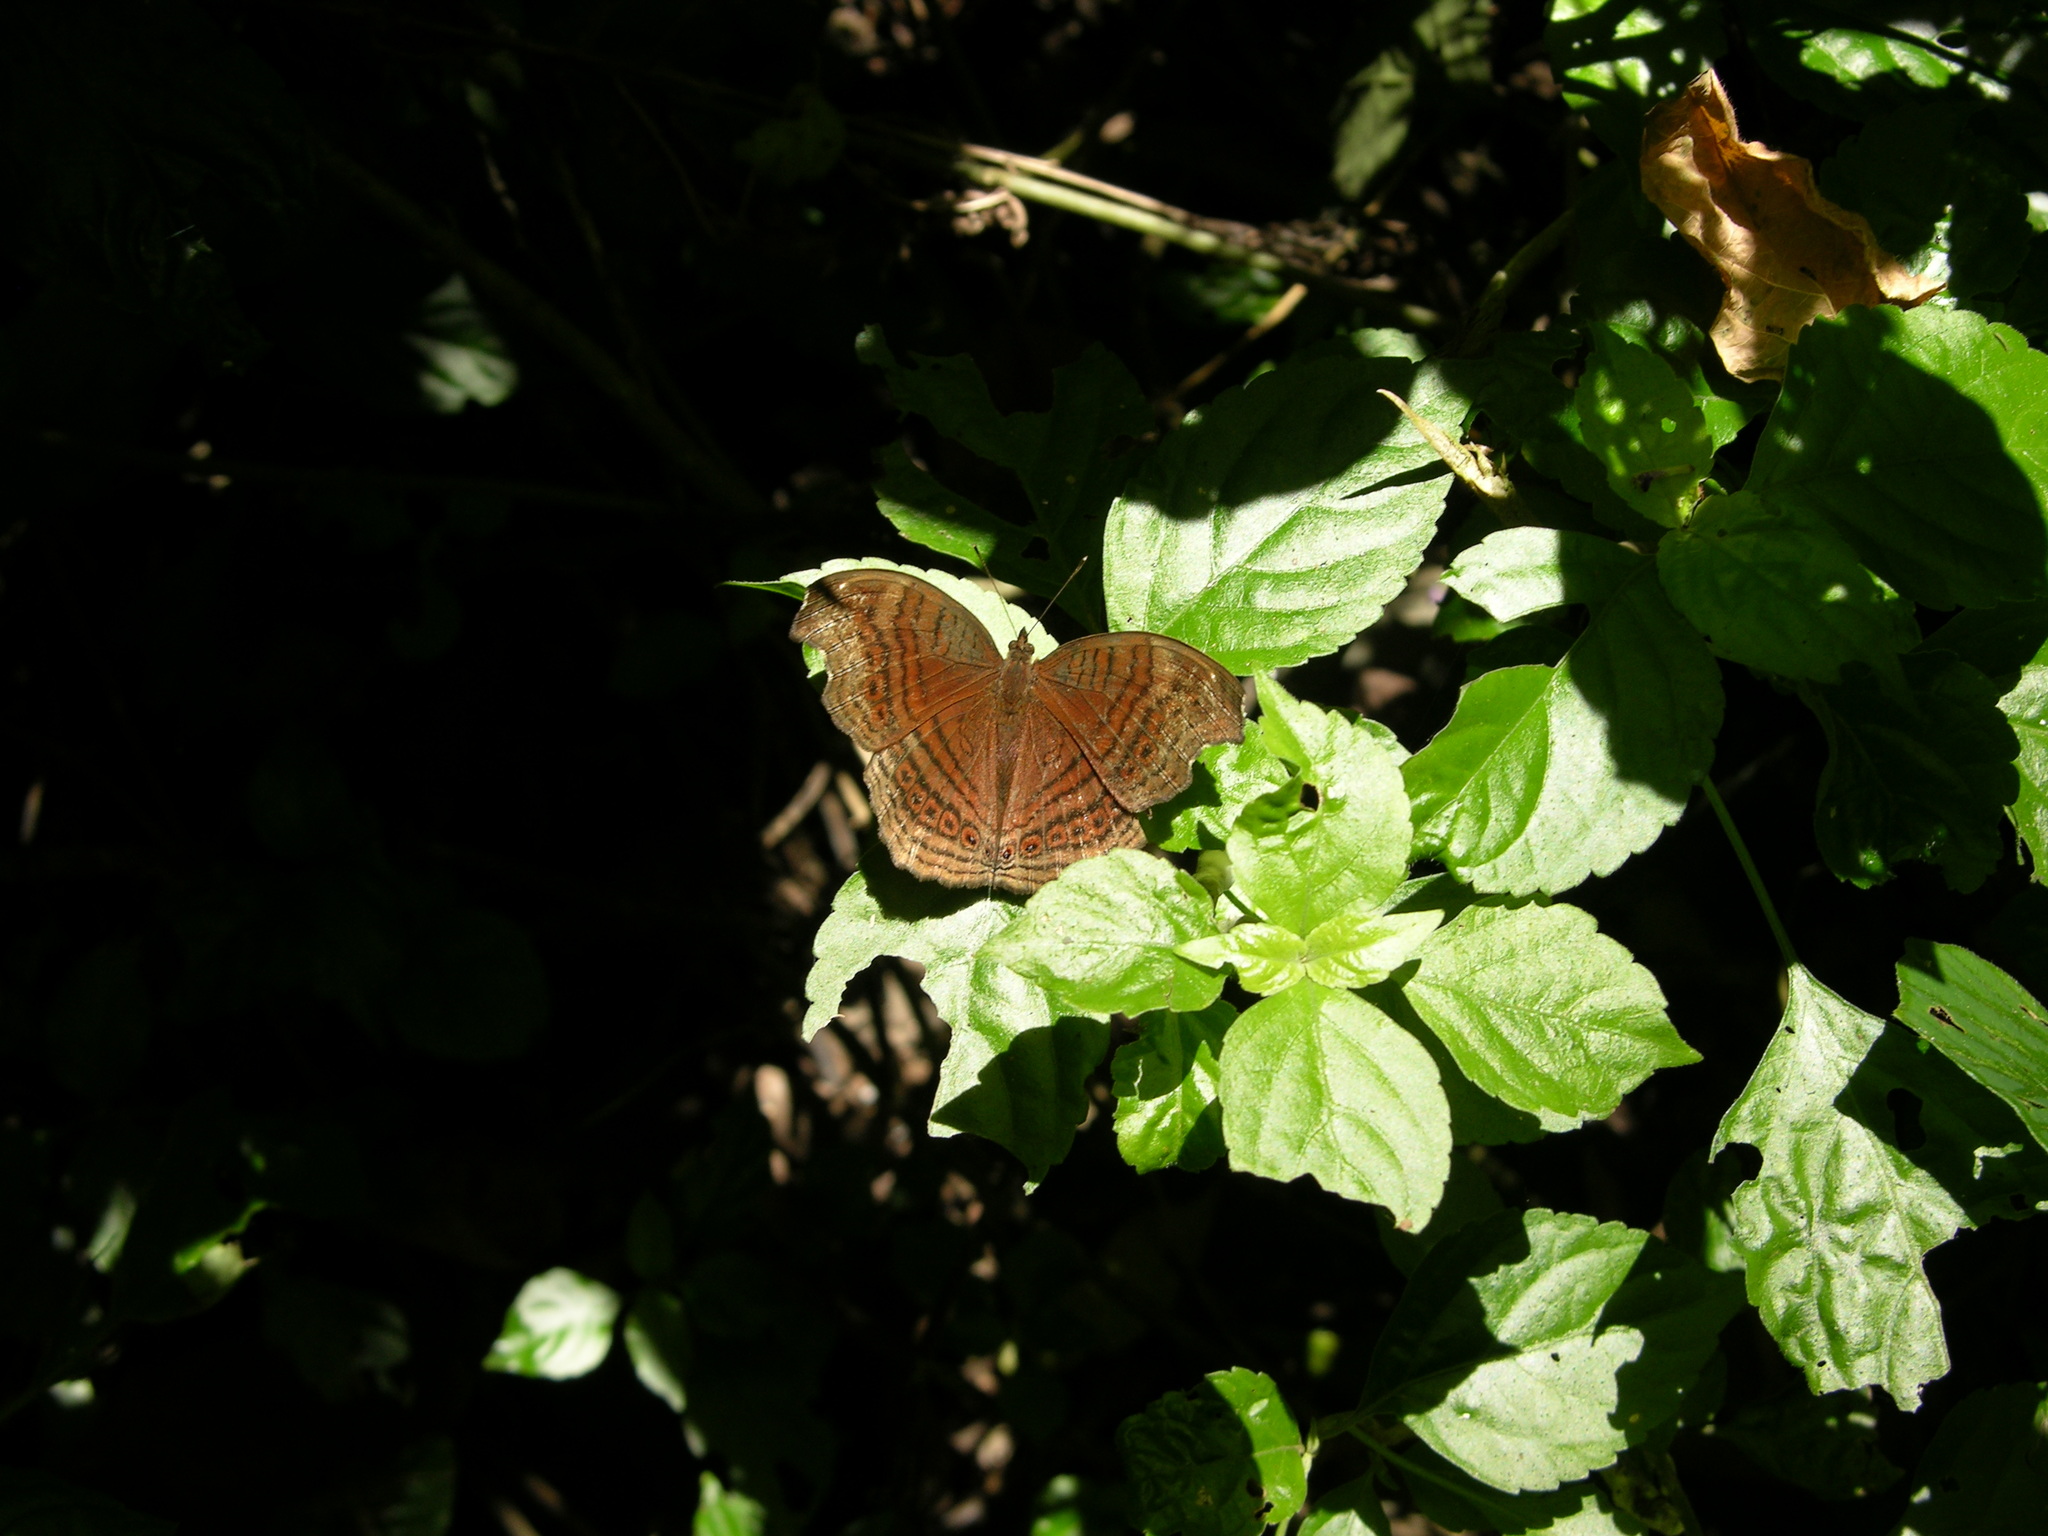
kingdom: Animalia
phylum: Arthropoda
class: Insecta
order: Lepidoptera
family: Nymphalidae
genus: Junonia
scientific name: Junonia stygia
